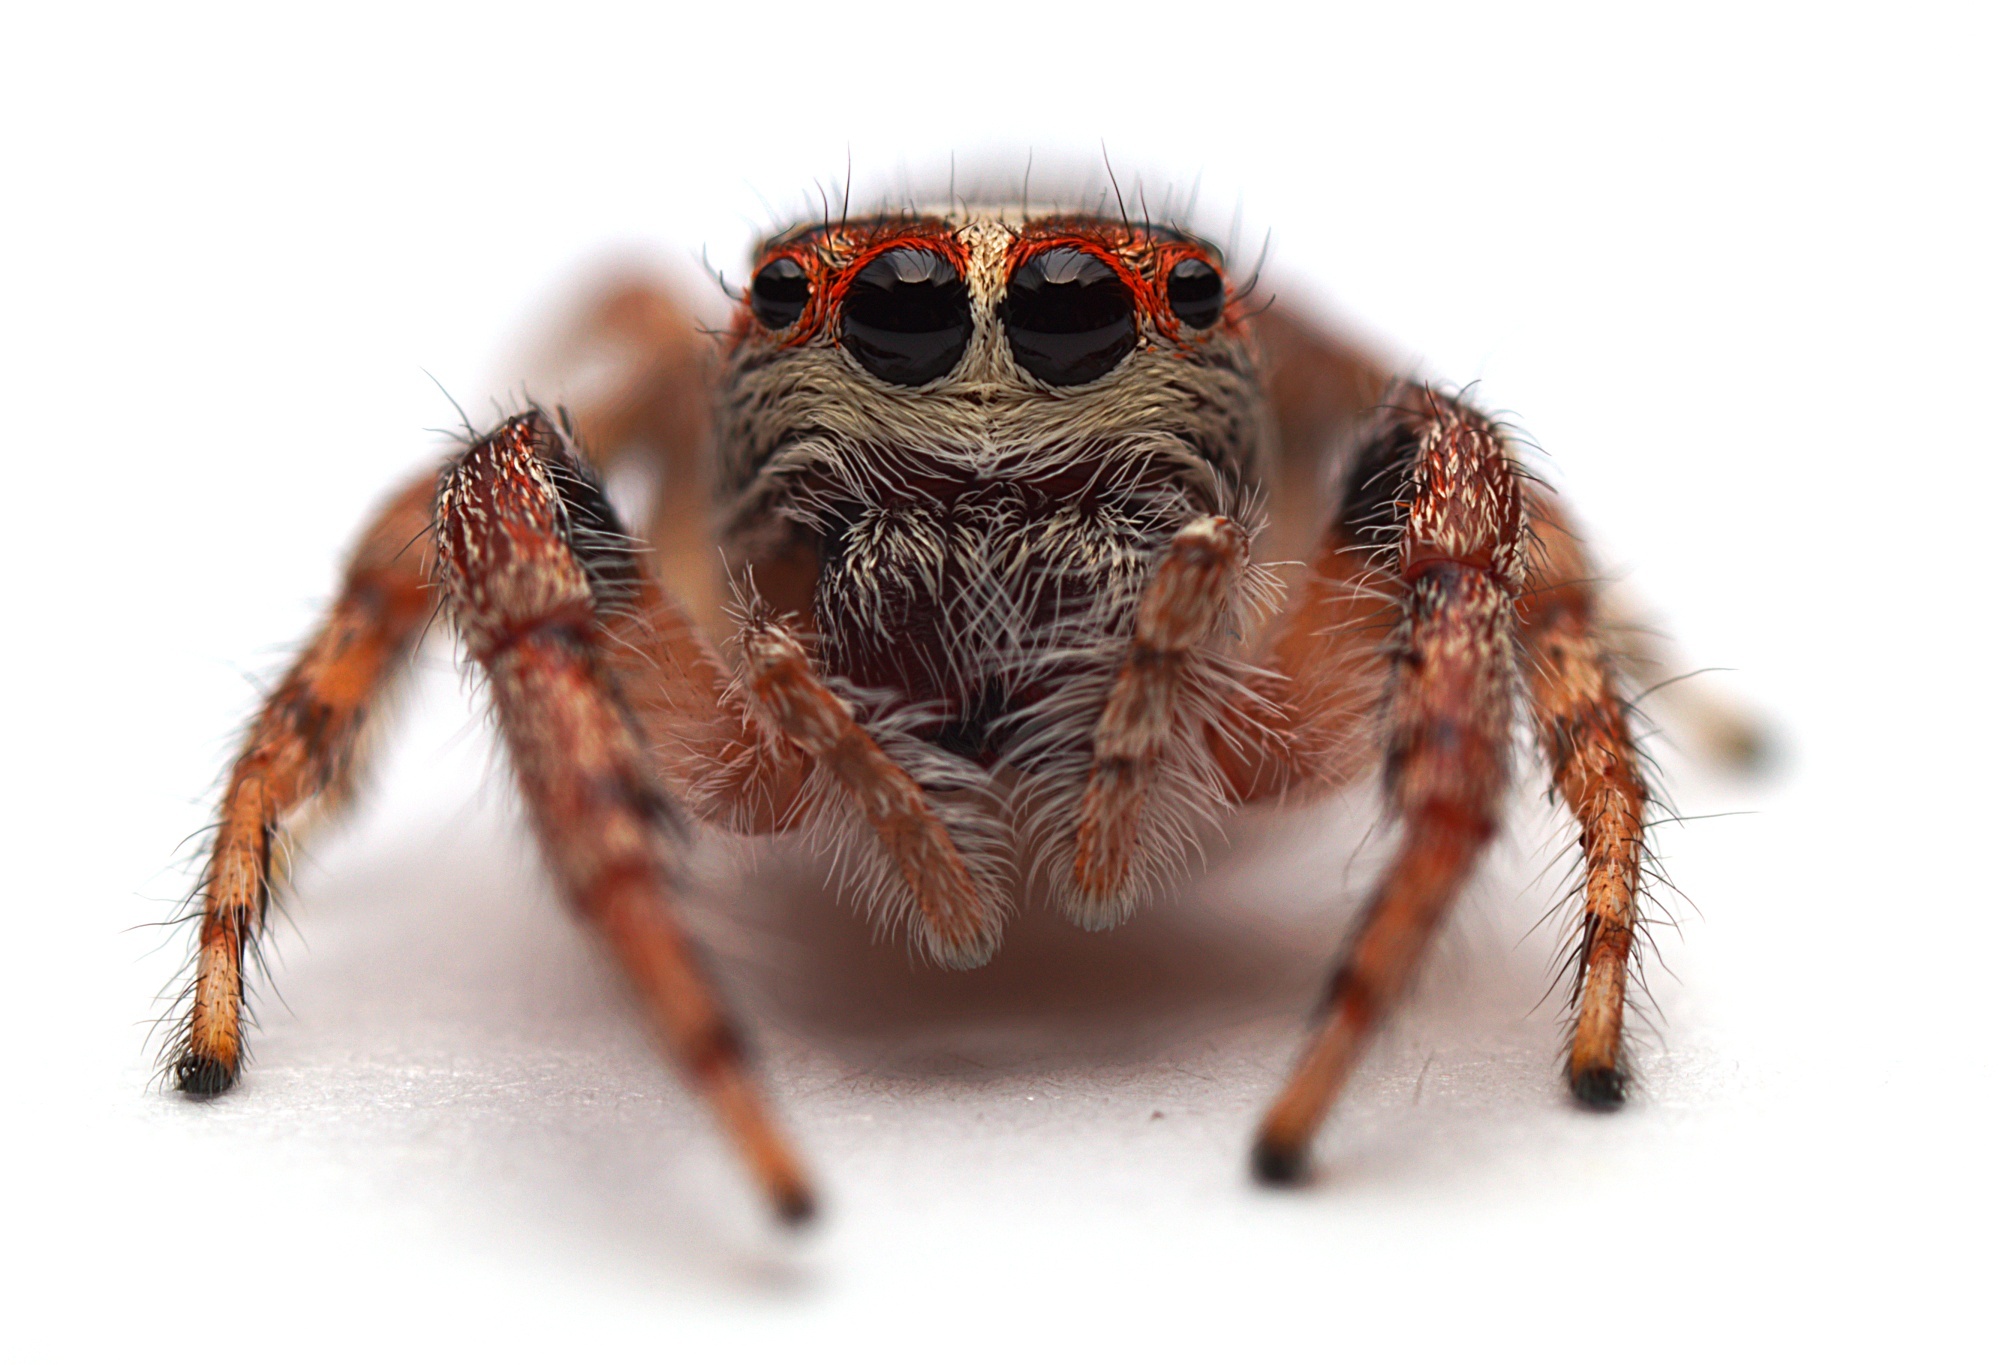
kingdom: Animalia
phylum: Arthropoda
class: Arachnida
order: Araneae
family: Salticidae
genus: Opisthoncus
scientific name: Opisthoncus polyphemus
